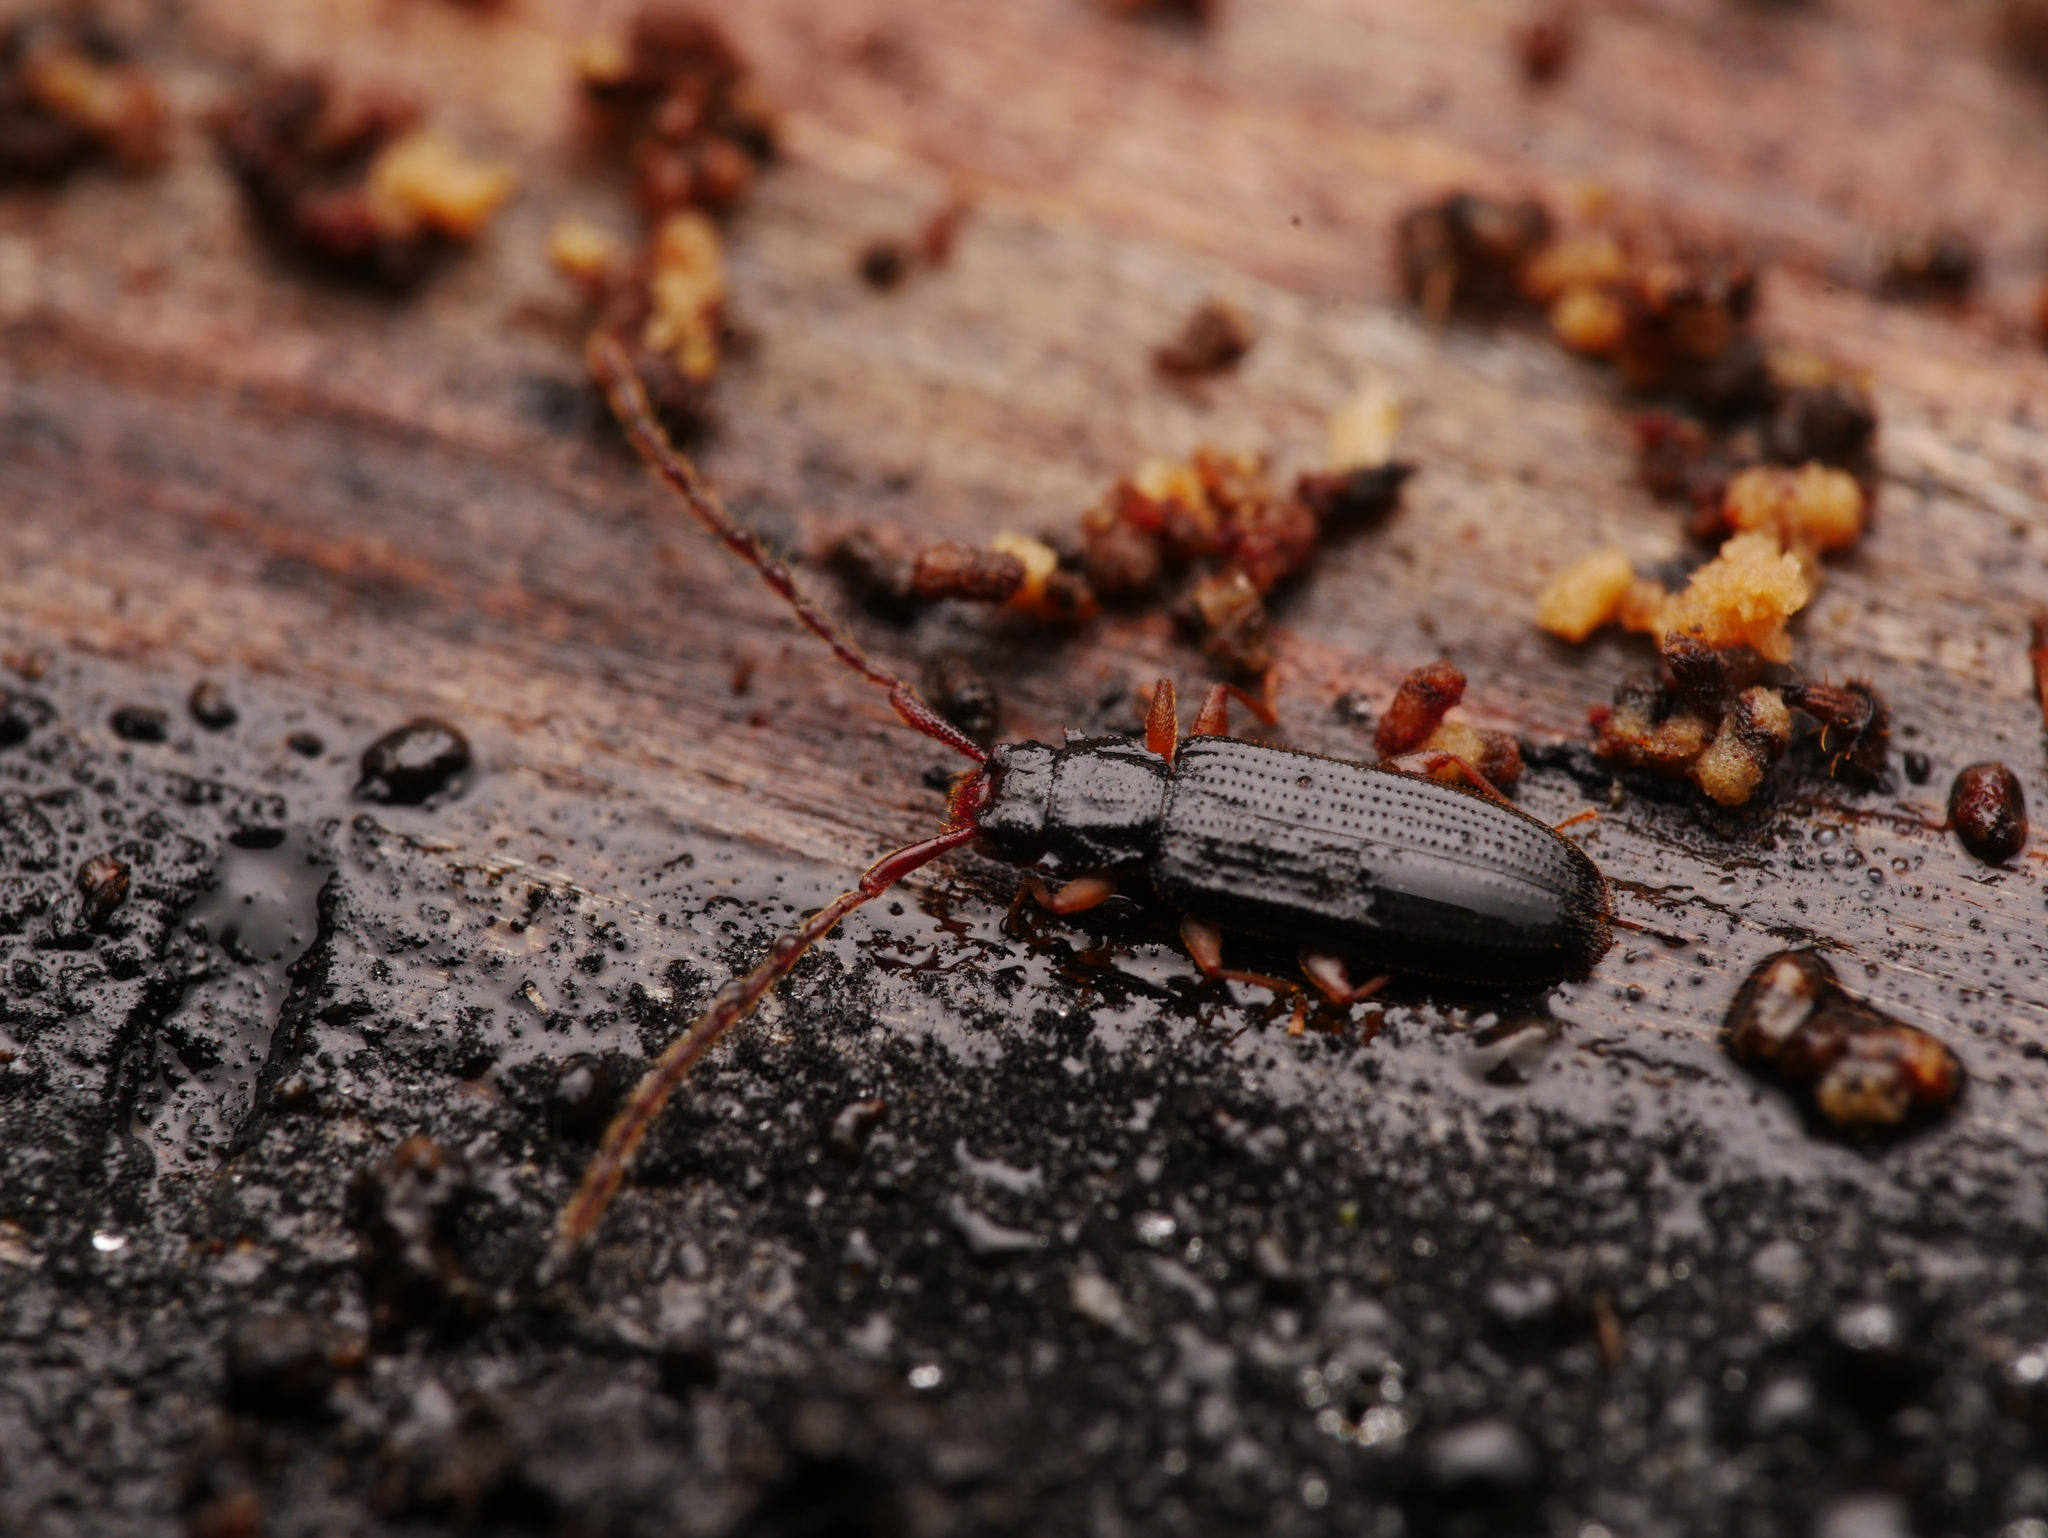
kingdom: Animalia
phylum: Arthropoda
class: Insecta
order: Coleoptera
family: Silvanidae
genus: Uleiota
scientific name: Uleiota planatus
